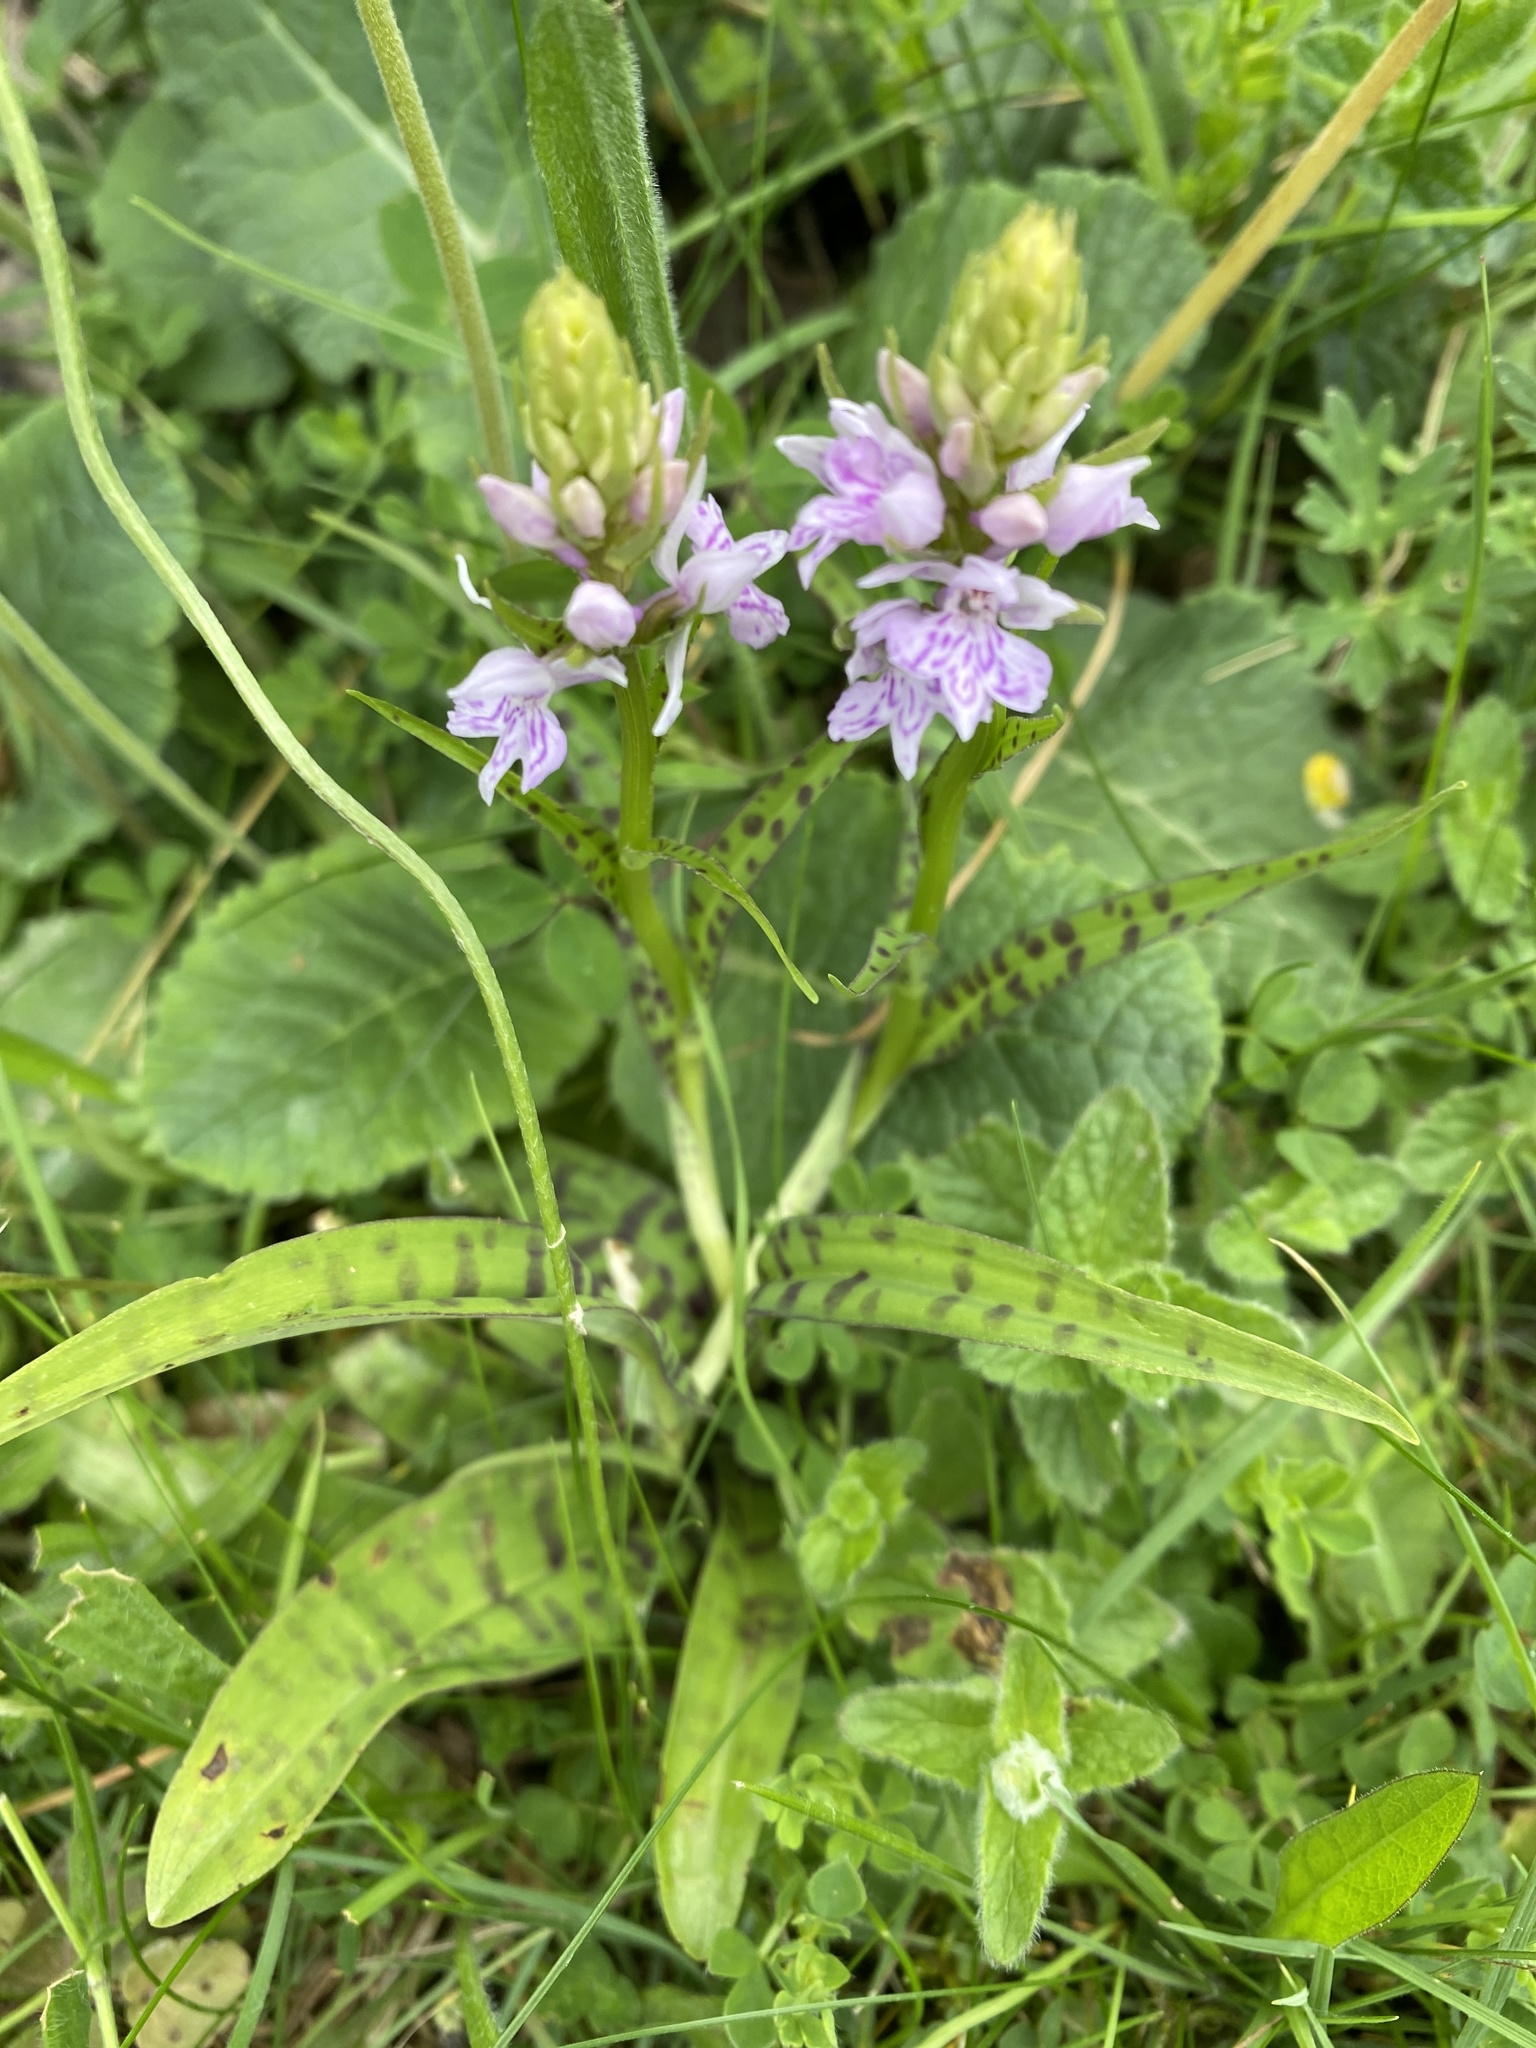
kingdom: Plantae
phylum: Tracheophyta
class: Liliopsida
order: Asparagales
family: Orchidaceae
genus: Dactylorhiza
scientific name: Dactylorhiza maculata
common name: Heath spotted-orchid
